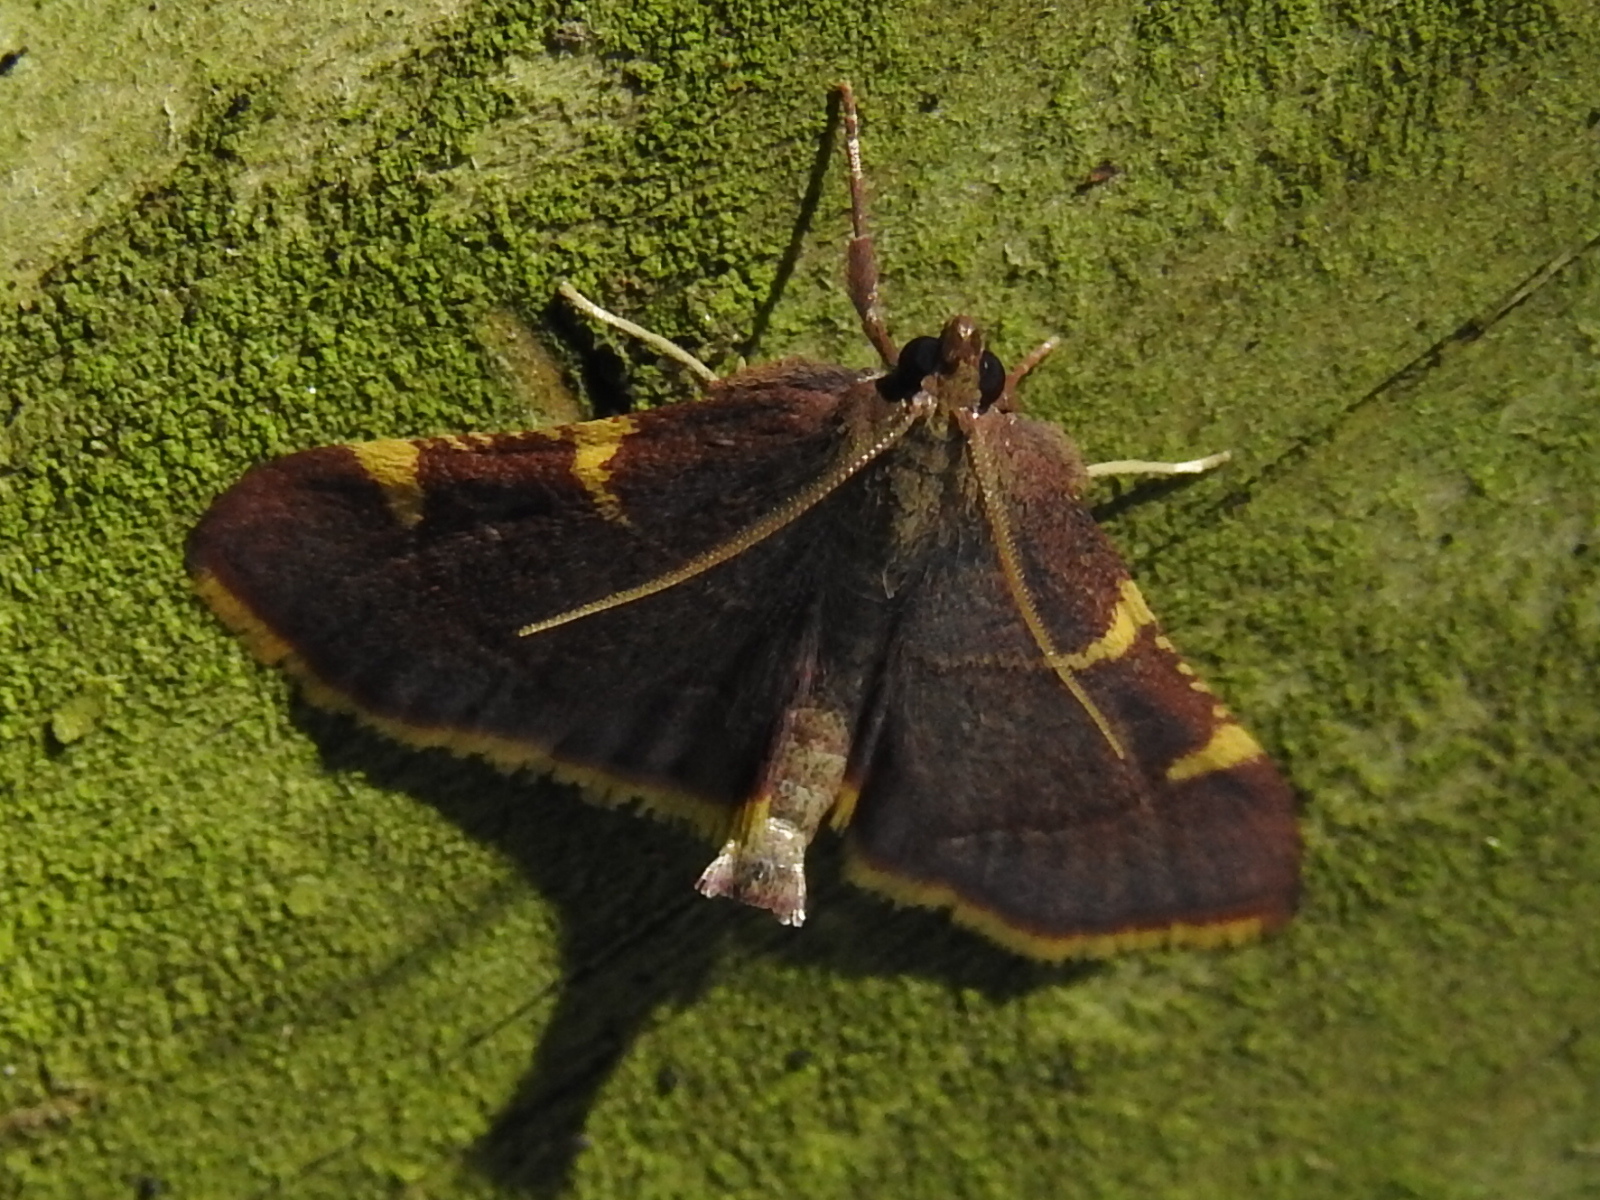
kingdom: Animalia
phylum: Arthropoda
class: Insecta
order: Lepidoptera
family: Pyralidae
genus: Hypsopygia
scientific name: Hypsopygia olinalis
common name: Yellow-fringed dolichomia moth
